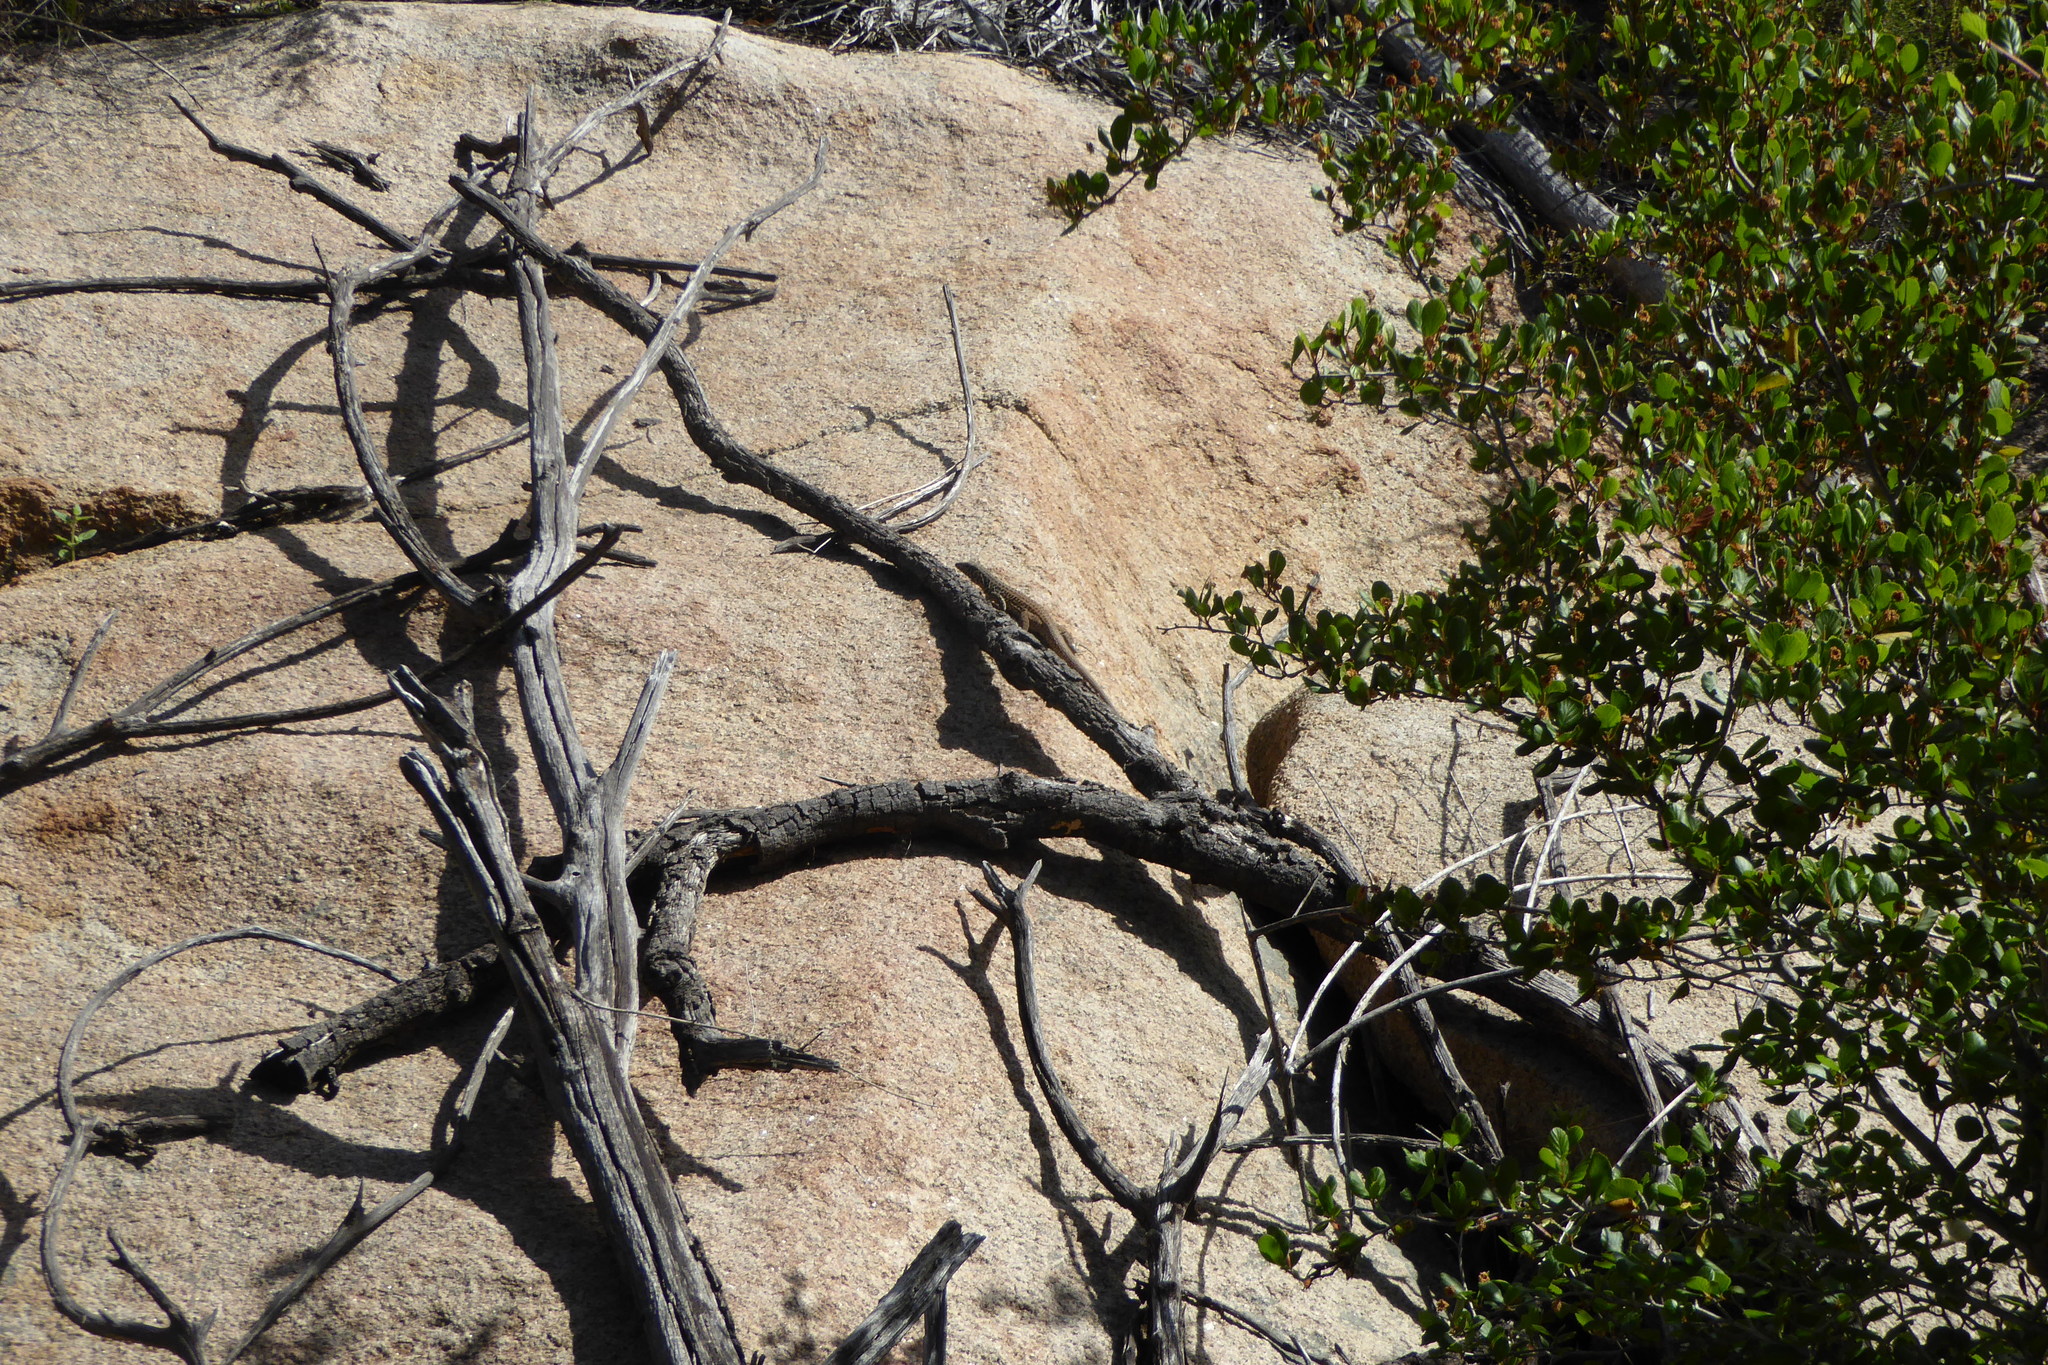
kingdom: Animalia
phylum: Chordata
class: Squamata
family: Teiidae
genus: Aspidoscelis
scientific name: Aspidoscelis tigris
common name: Tiger whiptail
